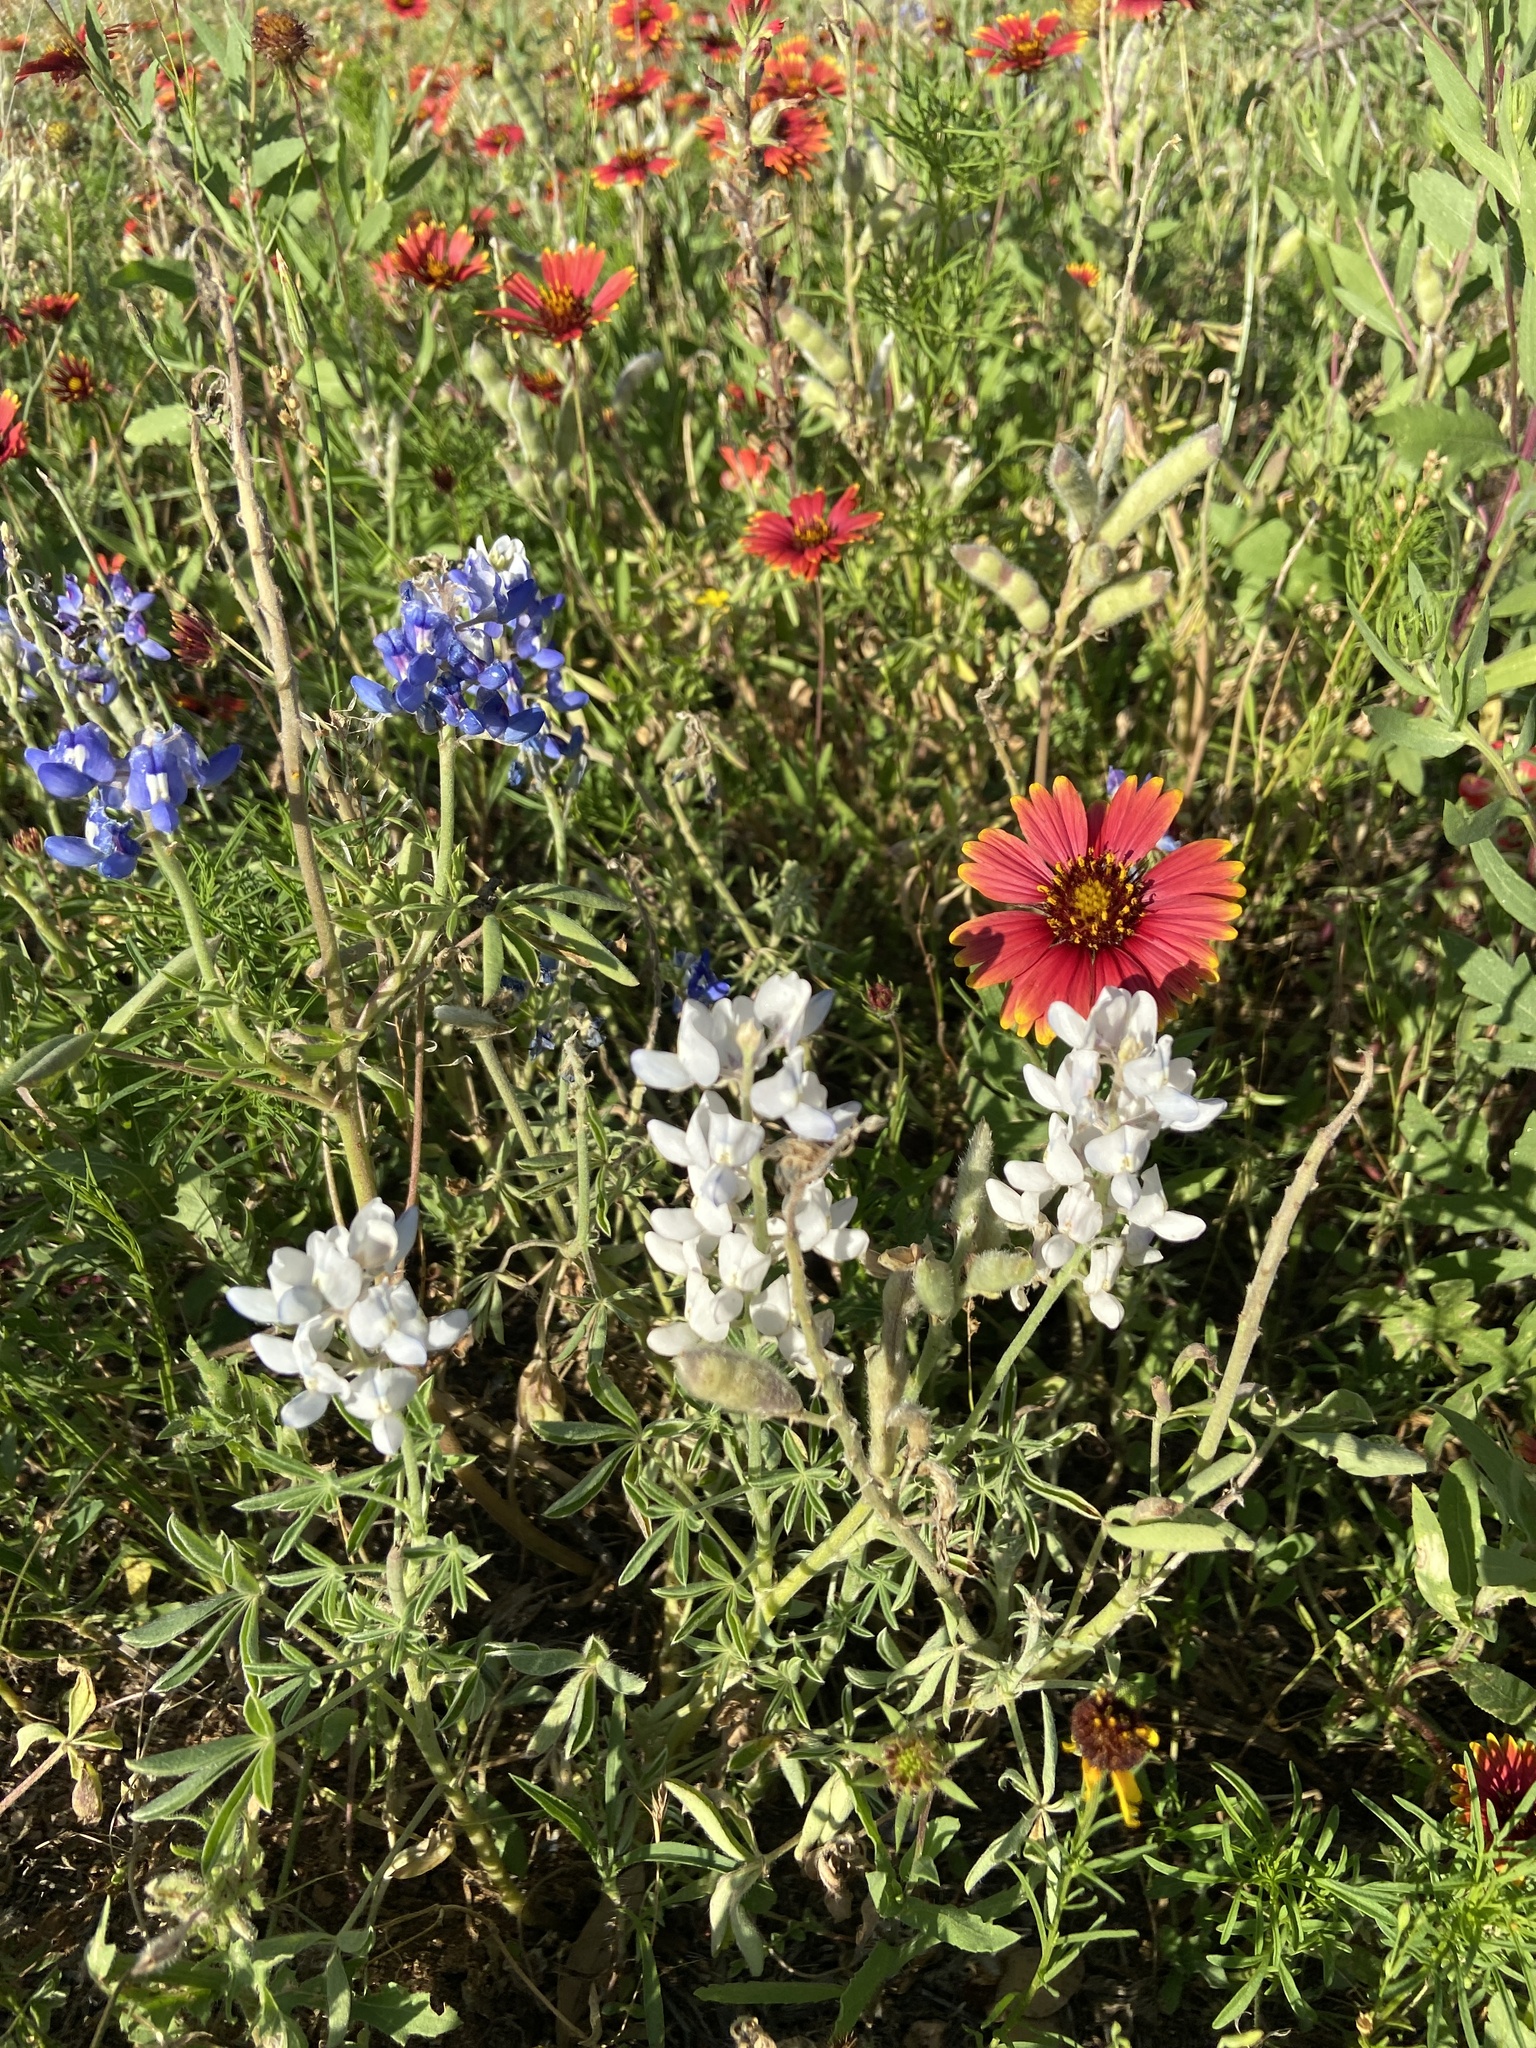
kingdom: Plantae
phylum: Tracheophyta
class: Magnoliopsida
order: Fabales
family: Fabaceae
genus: Lupinus
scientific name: Lupinus texensis
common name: Texas bluebonnet
